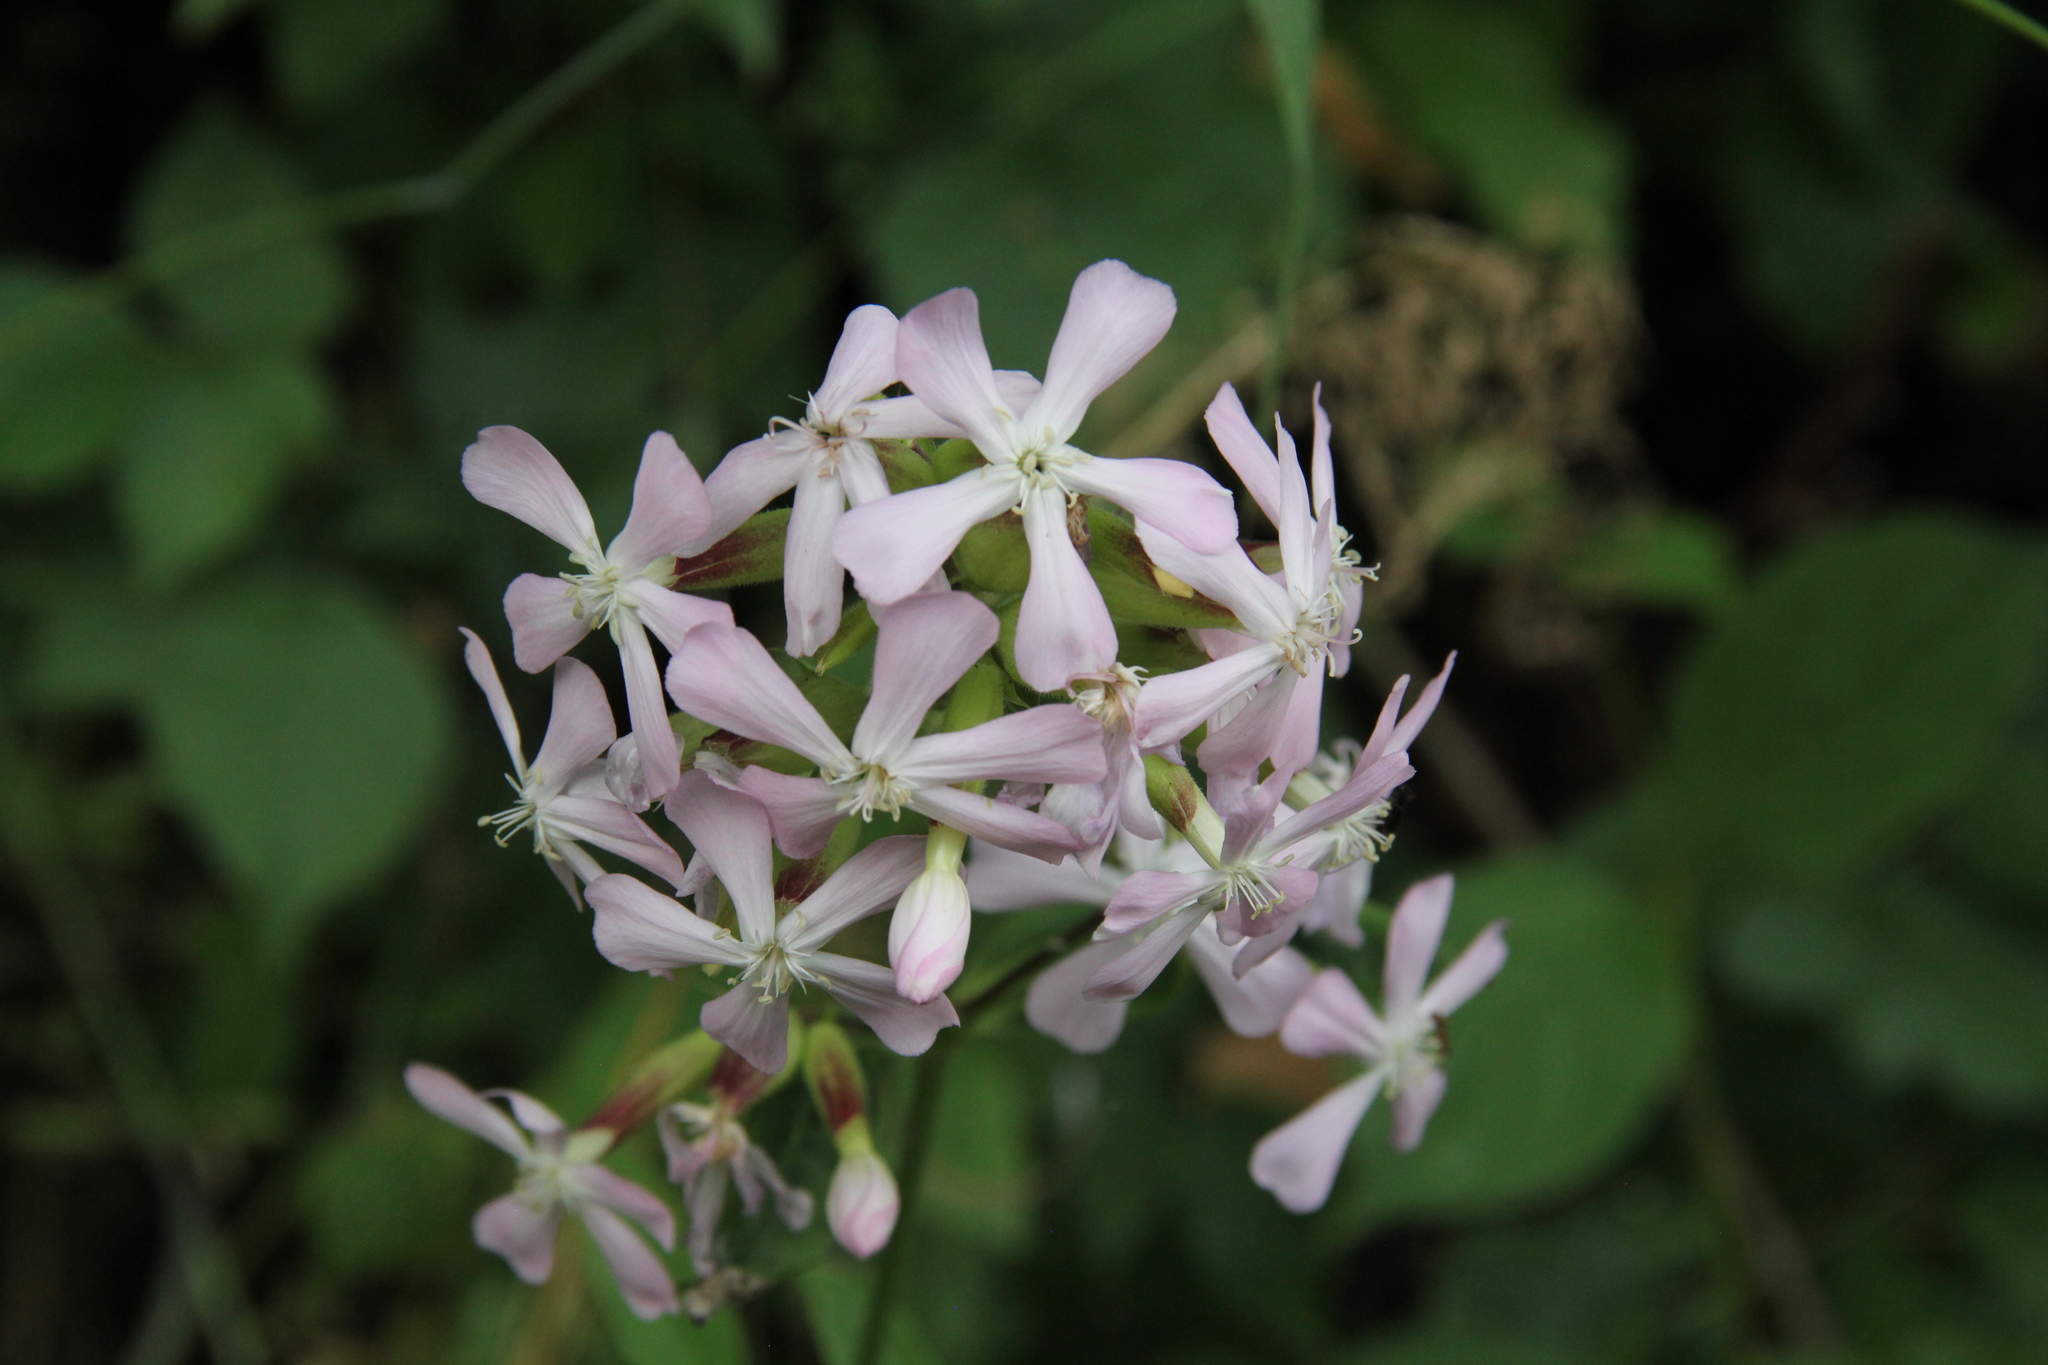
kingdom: Plantae
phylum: Tracheophyta
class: Magnoliopsida
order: Caryophyllales
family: Caryophyllaceae
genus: Saponaria
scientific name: Saponaria officinalis
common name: Soapwort
